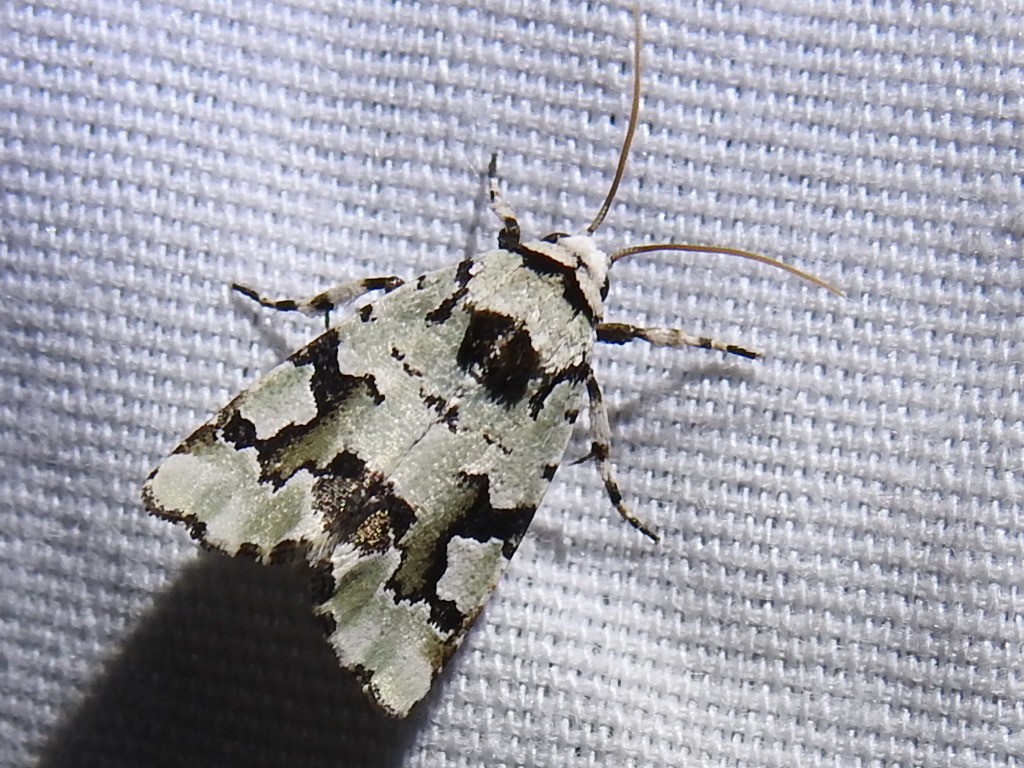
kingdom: Animalia
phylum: Arthropoda
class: Insecta
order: Lepidoptera
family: Noctuidae
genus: Emarginea
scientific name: Emarginea percara
